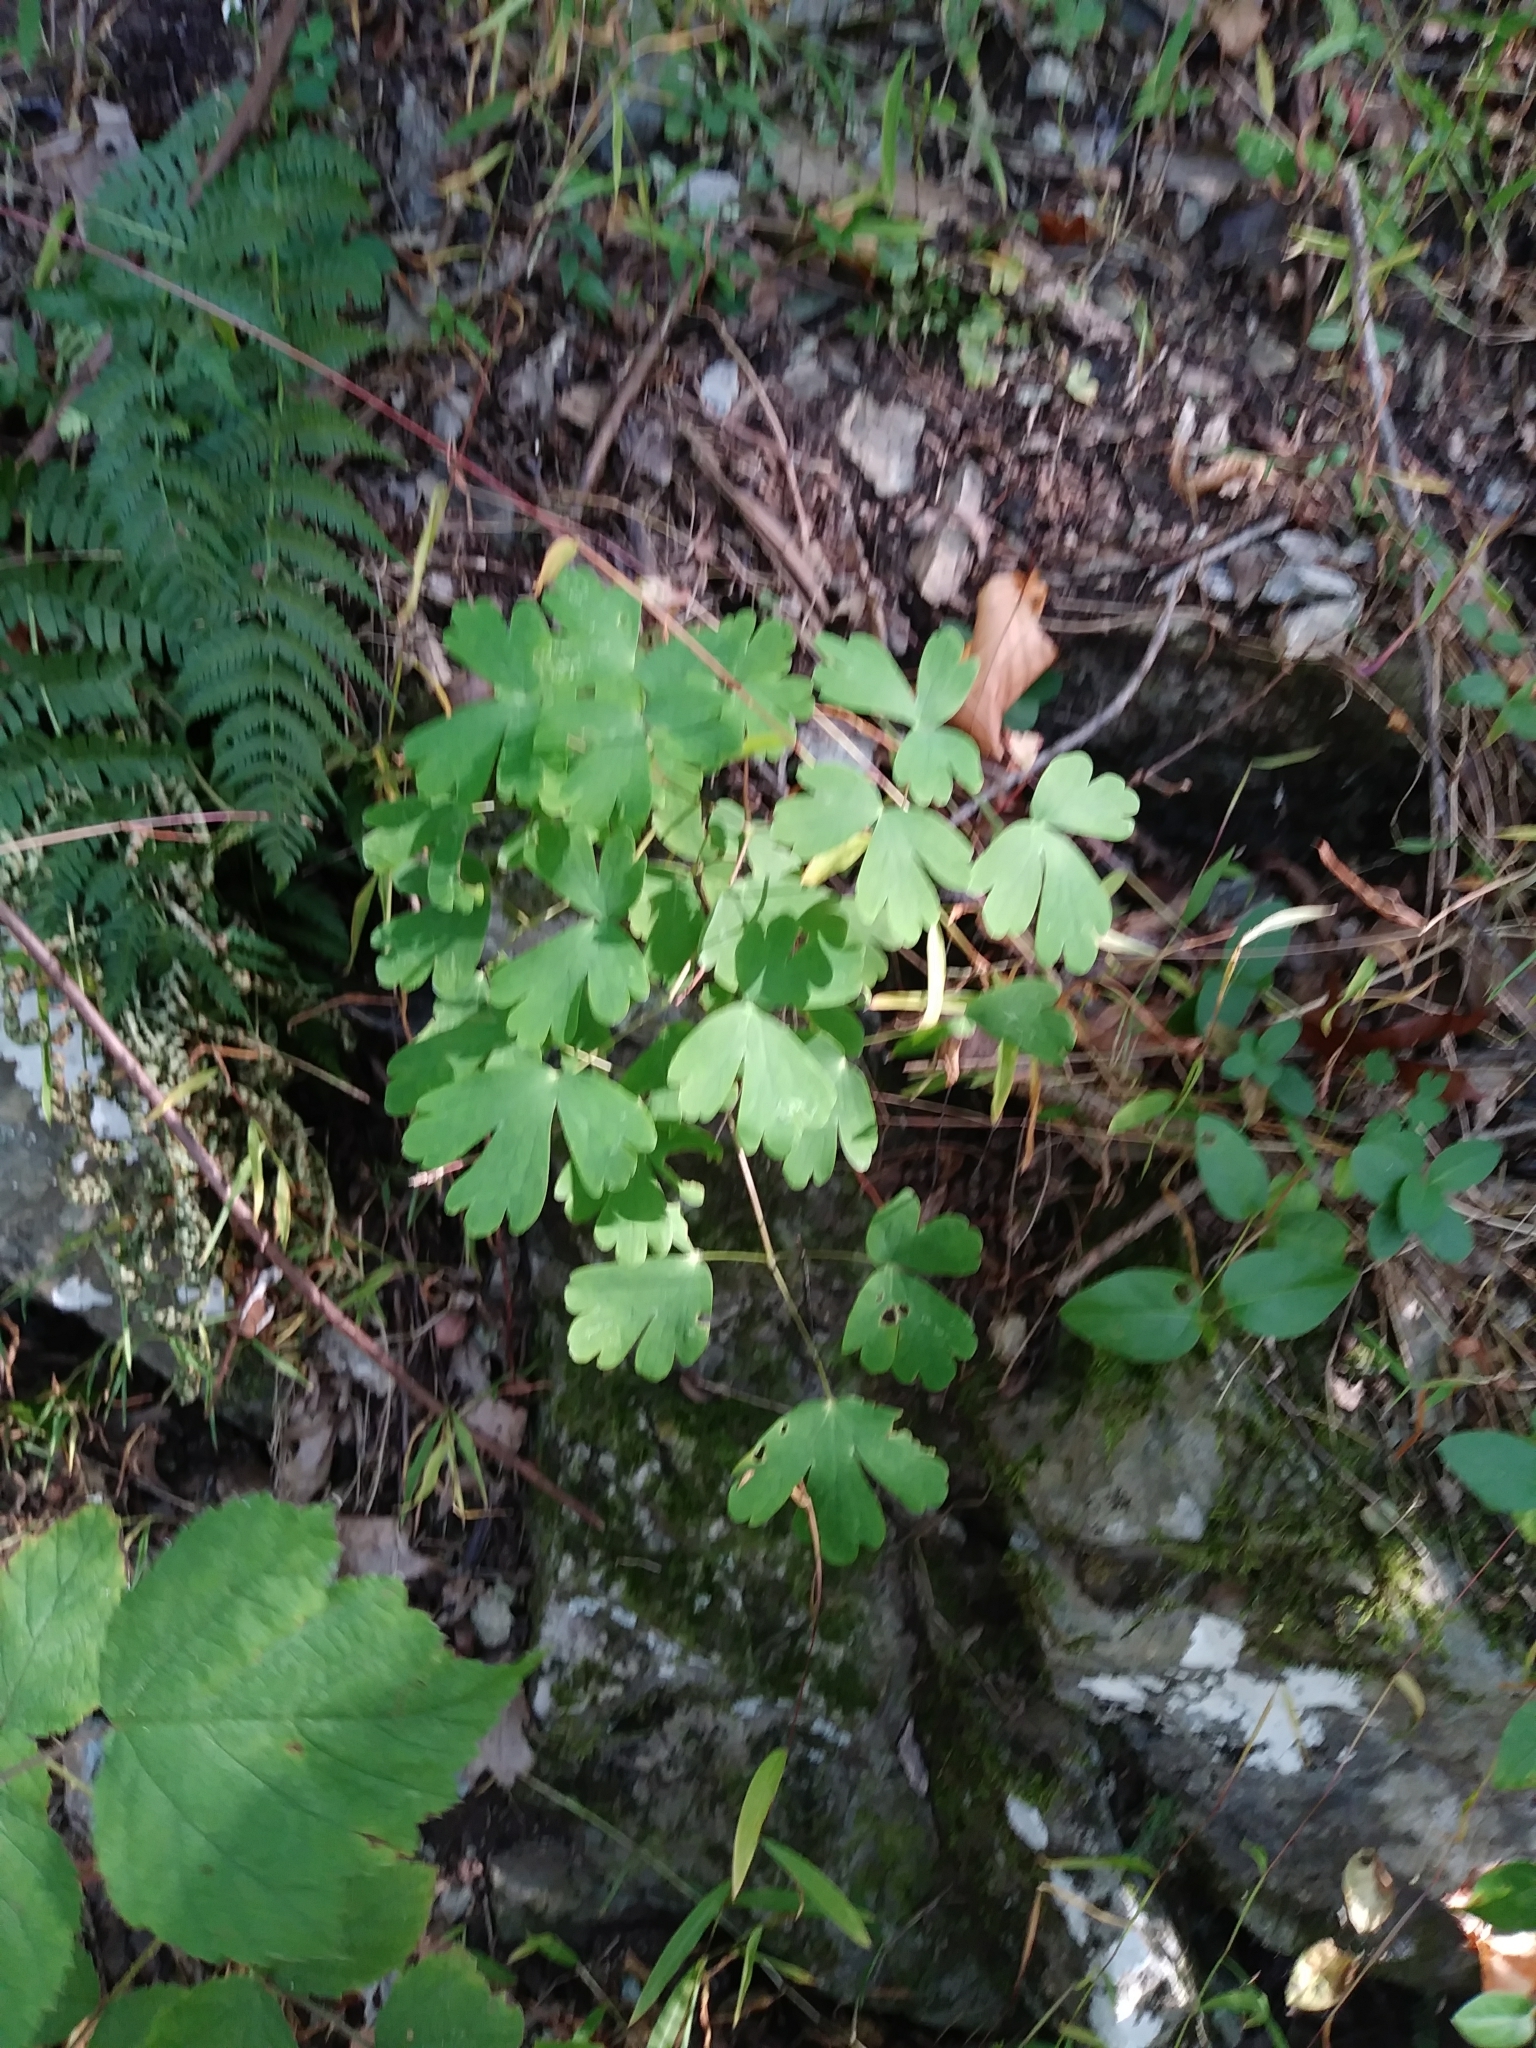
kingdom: Plantae
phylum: Tracheophyta
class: Magnoliopsida
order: Ranunculales
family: Ranunculaceae
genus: Aquilegia
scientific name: Aquilegia canadensis
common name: American columbine
